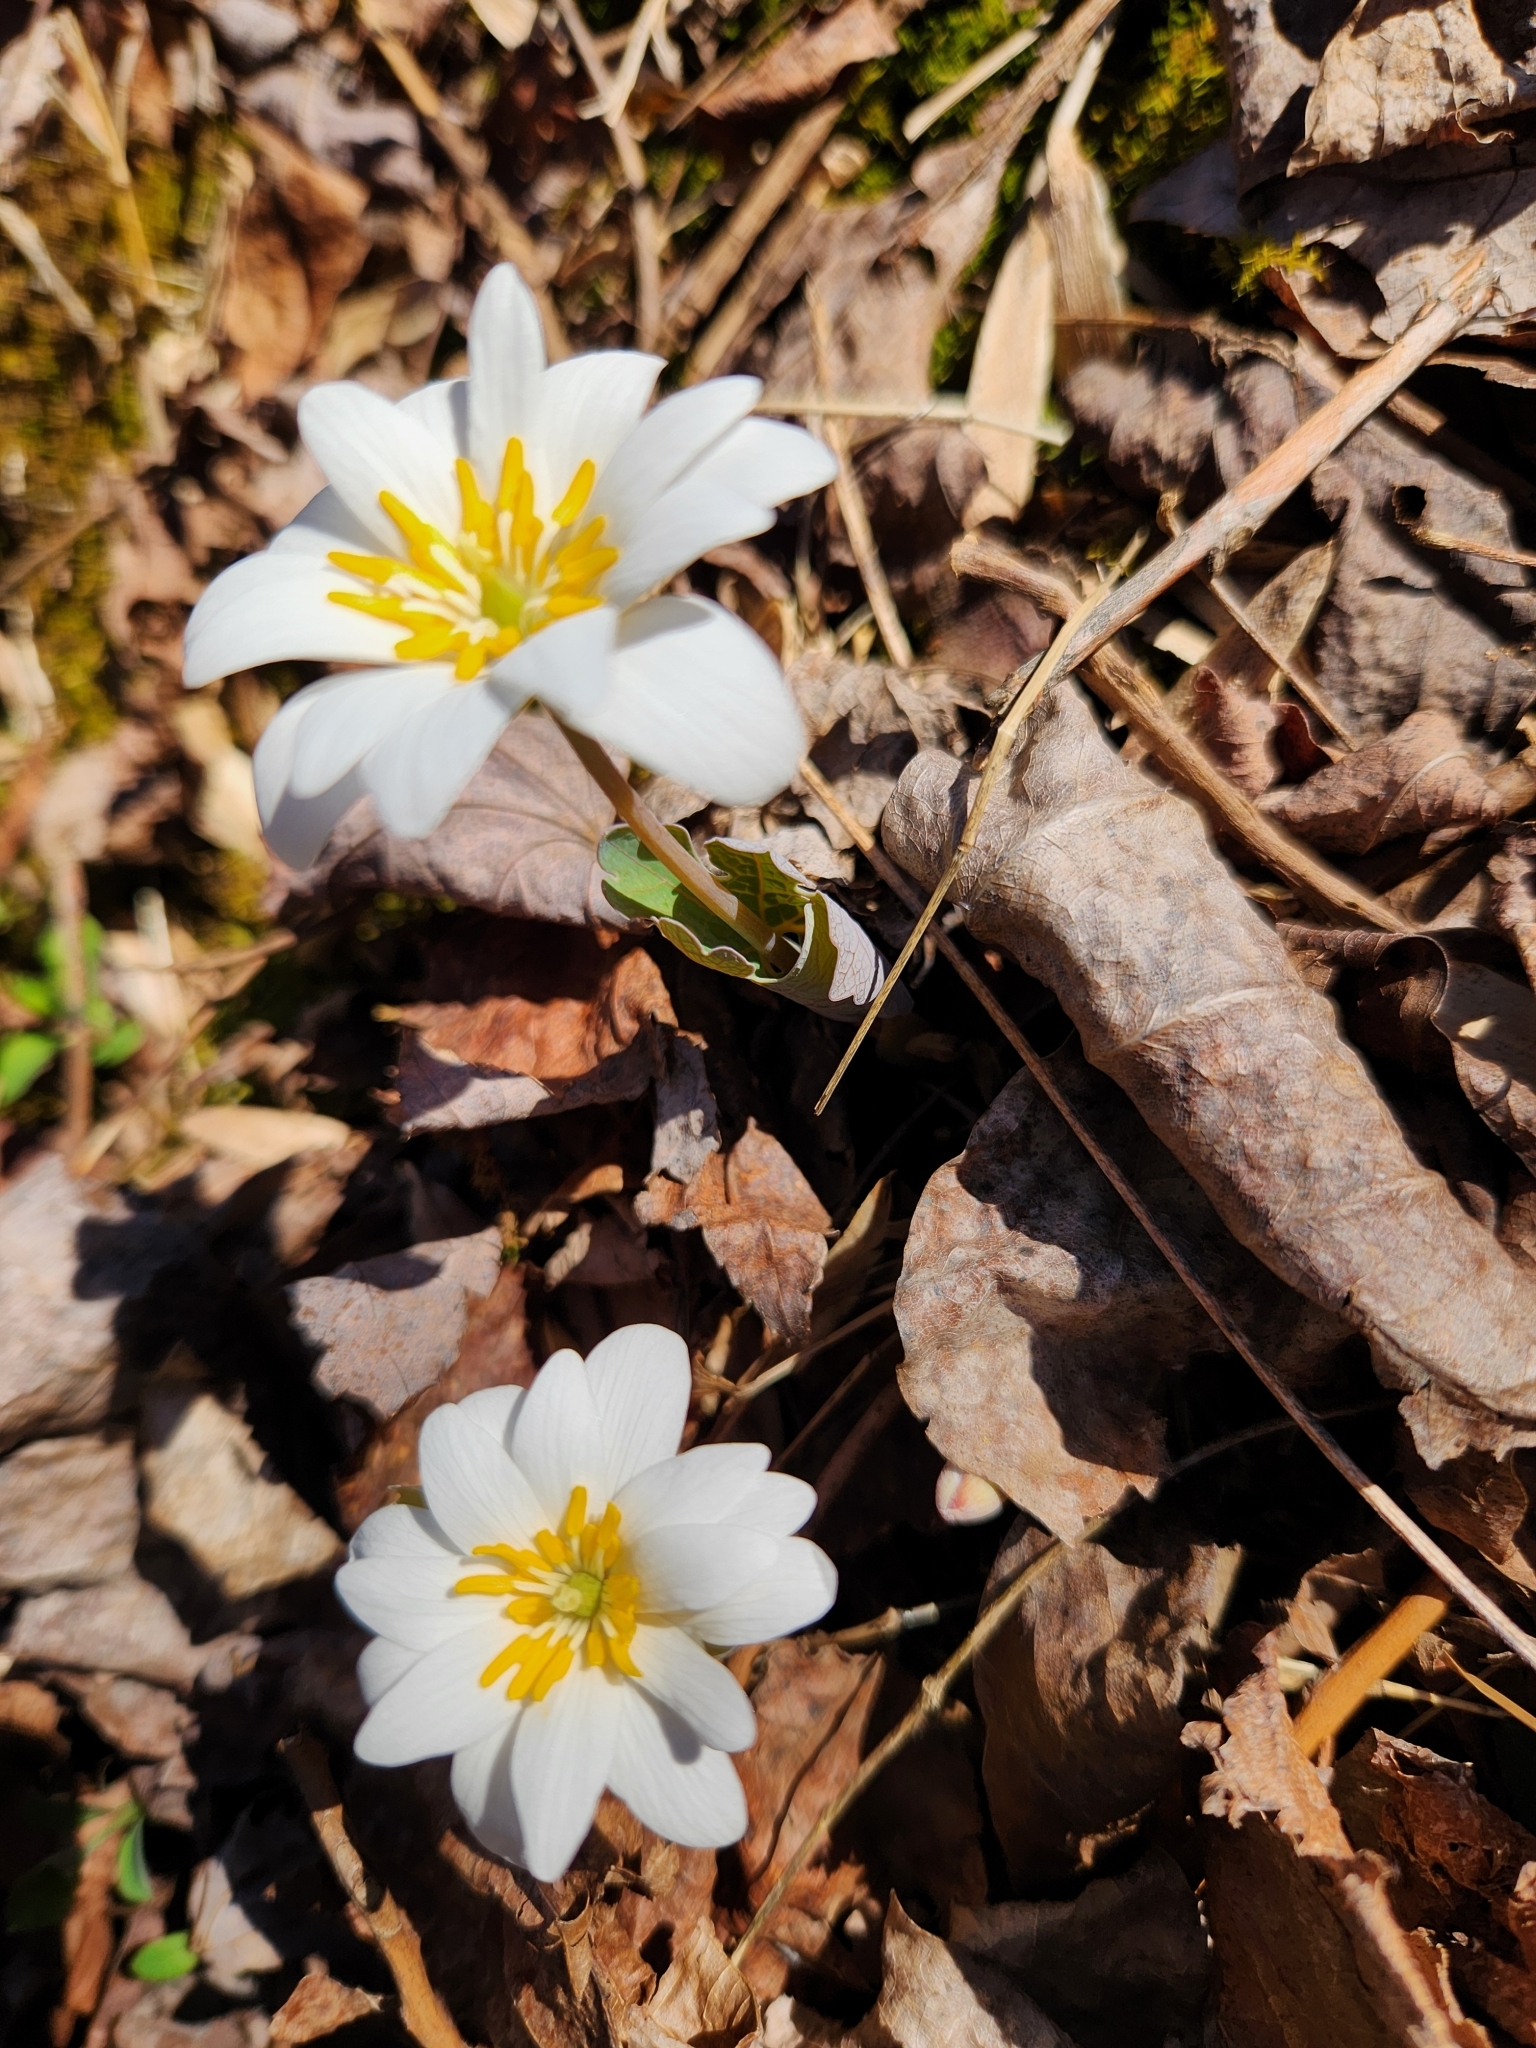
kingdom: Plantae
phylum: Tracheophyta
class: Magnoliopsida
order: Ranunculales
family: Papaveraceae
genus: Sanguinaria
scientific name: Sanguinaria canadensis
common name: Bloodroot
